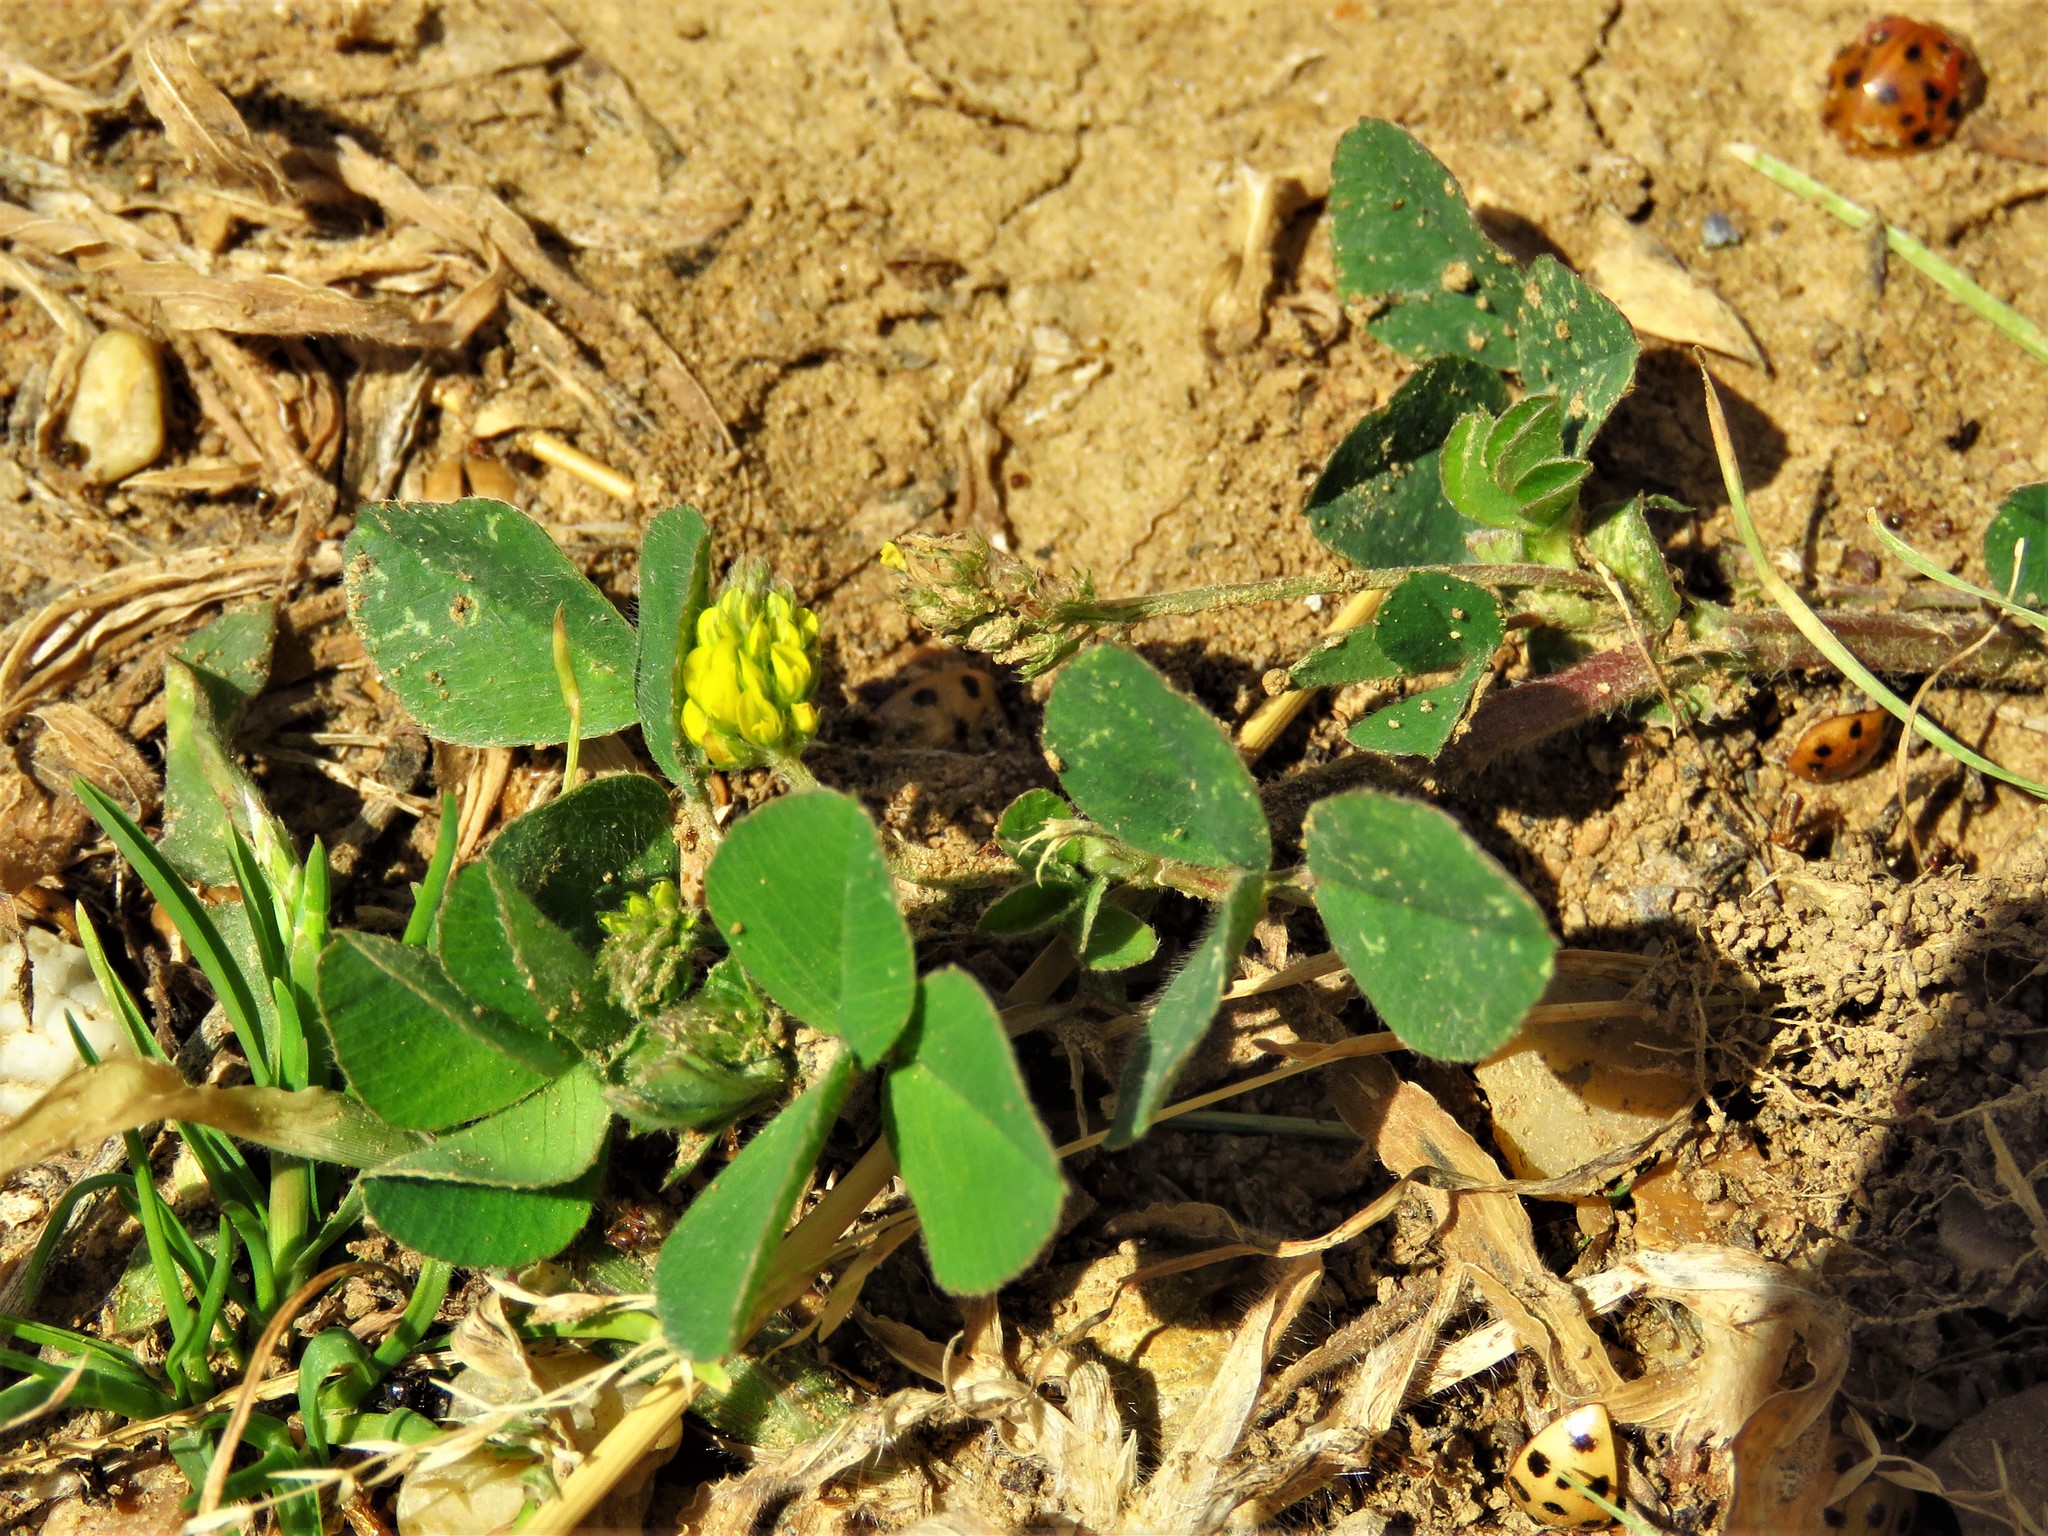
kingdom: Plantae
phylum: Tracheophyta
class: Magnoliopsida
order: Fabales
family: Fabaceae
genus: Medicago
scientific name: Medicago lupulina
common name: Black medick
